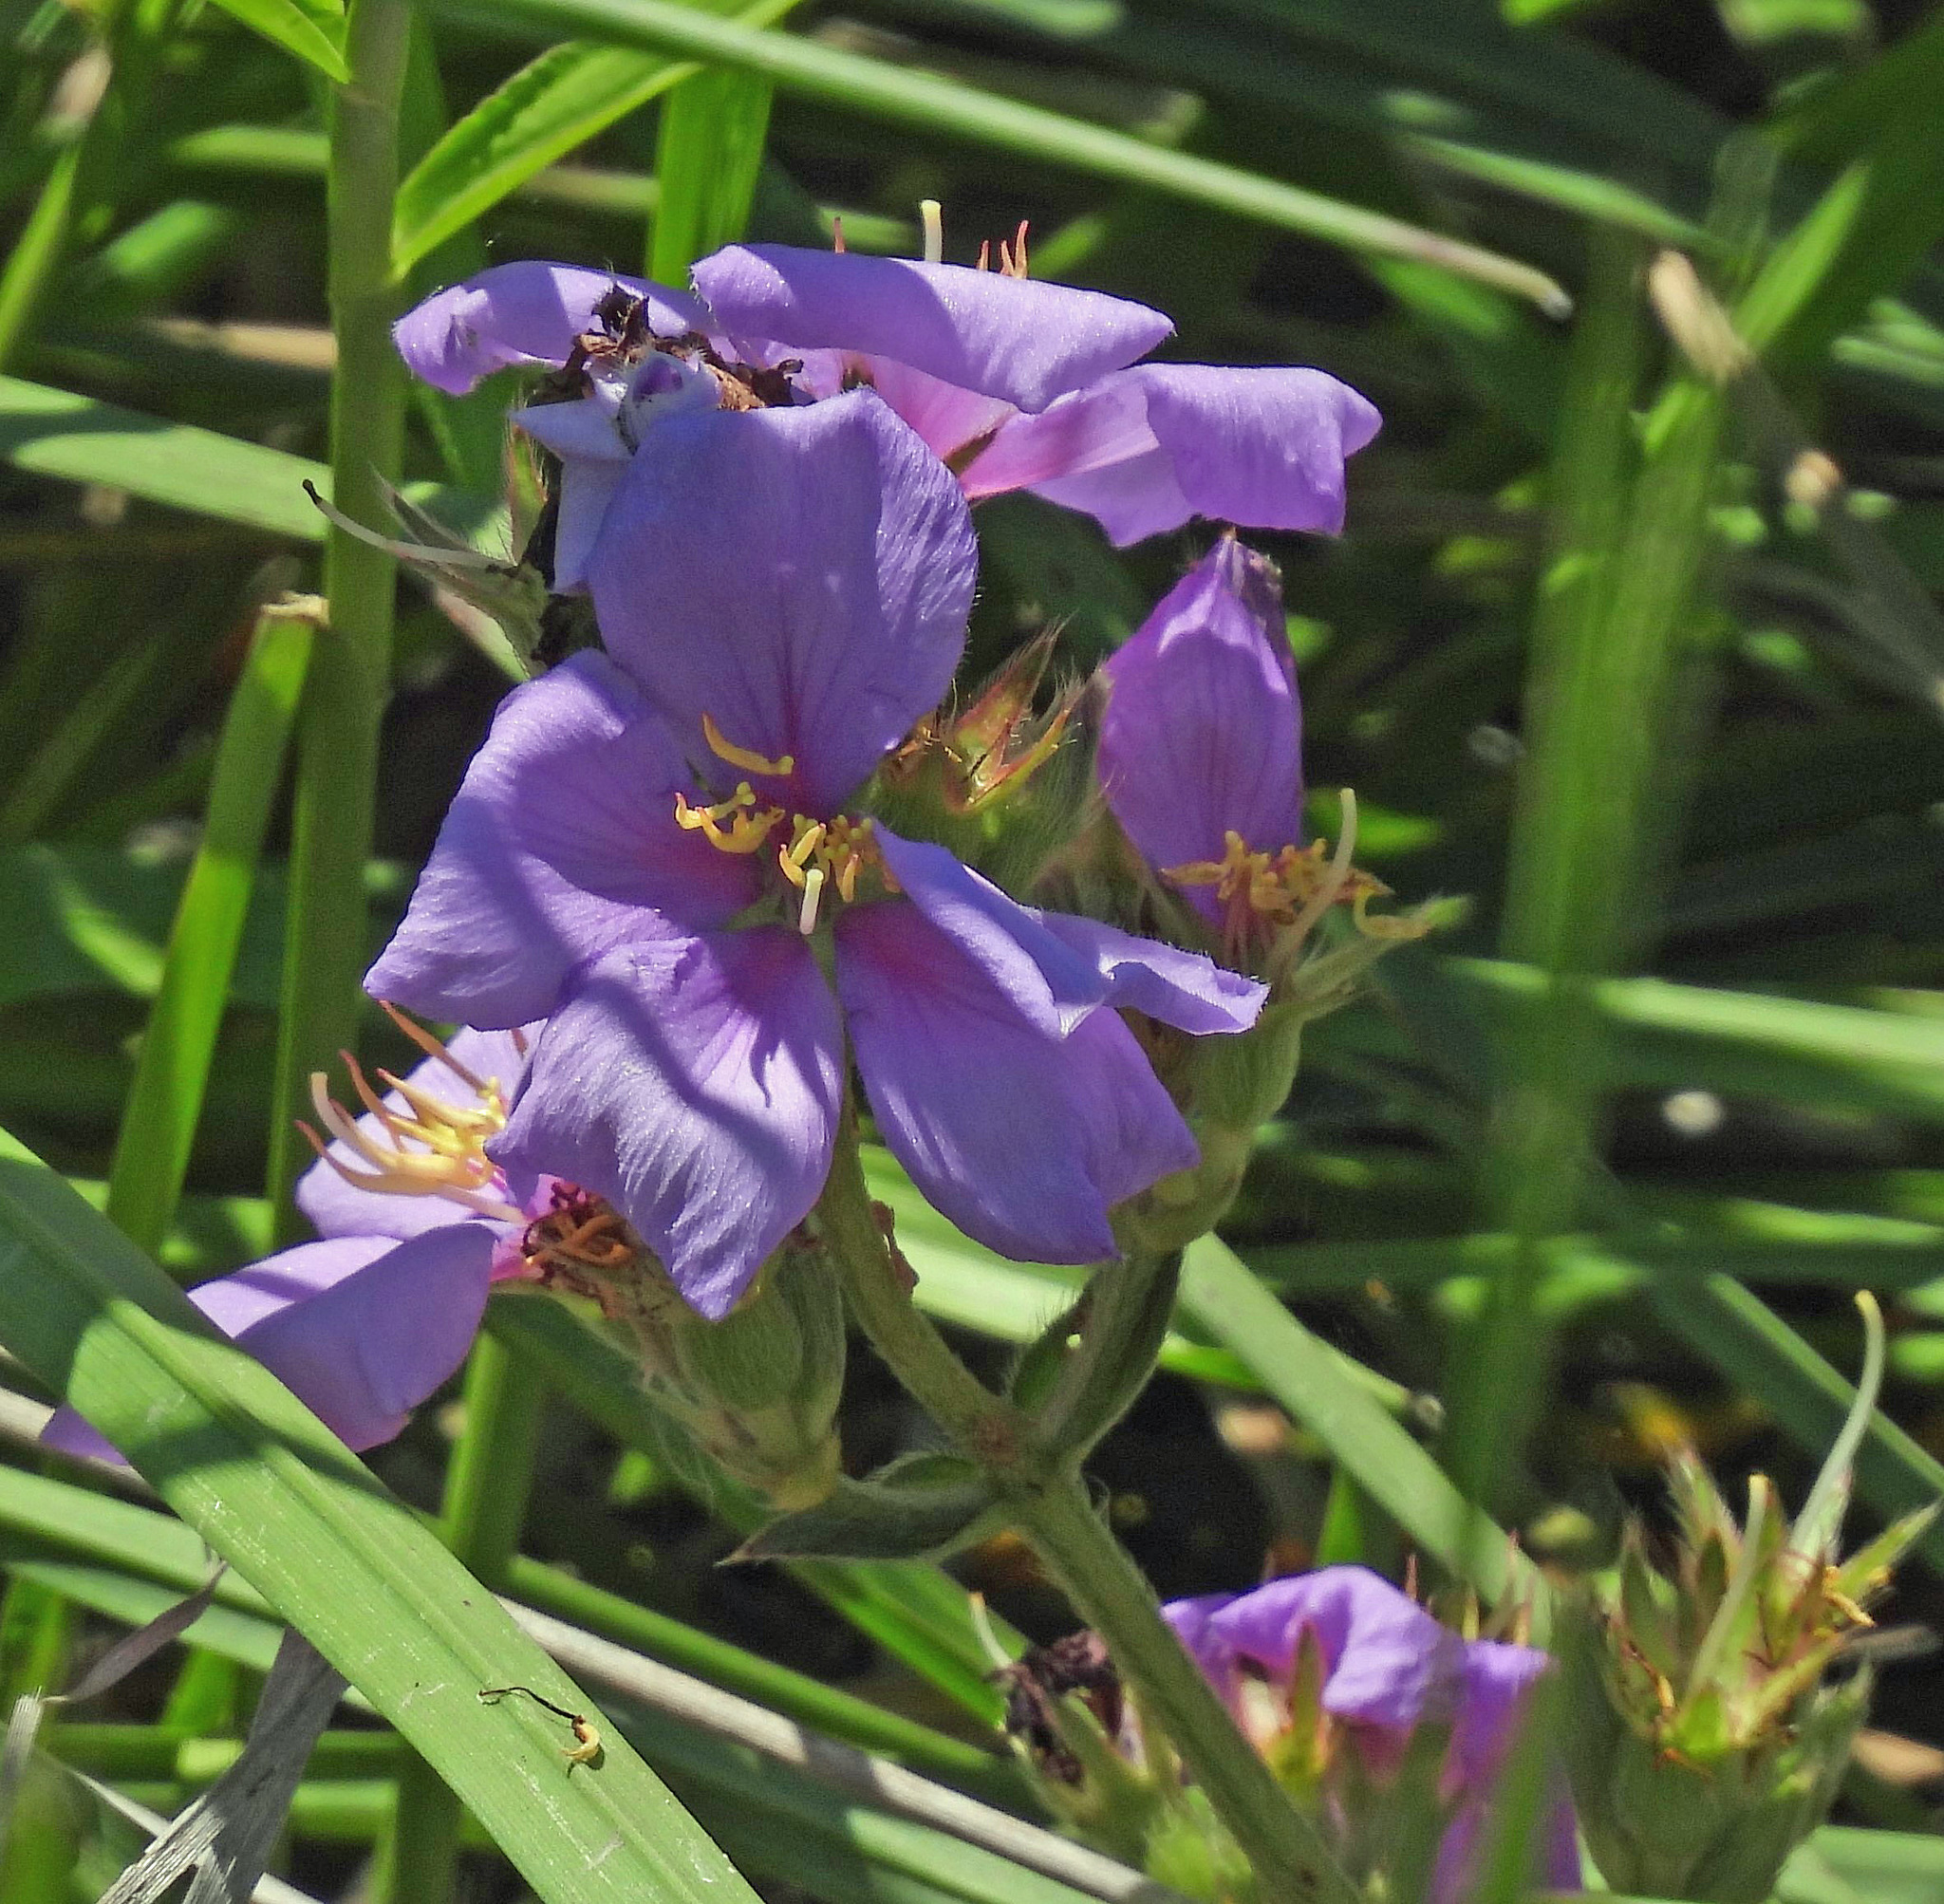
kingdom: Plantae
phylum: Tracheophyta
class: Magnoliopsida
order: Myrtales
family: Melastomataceae
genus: Chaetogastra
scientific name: Chaetogastra gracilis
